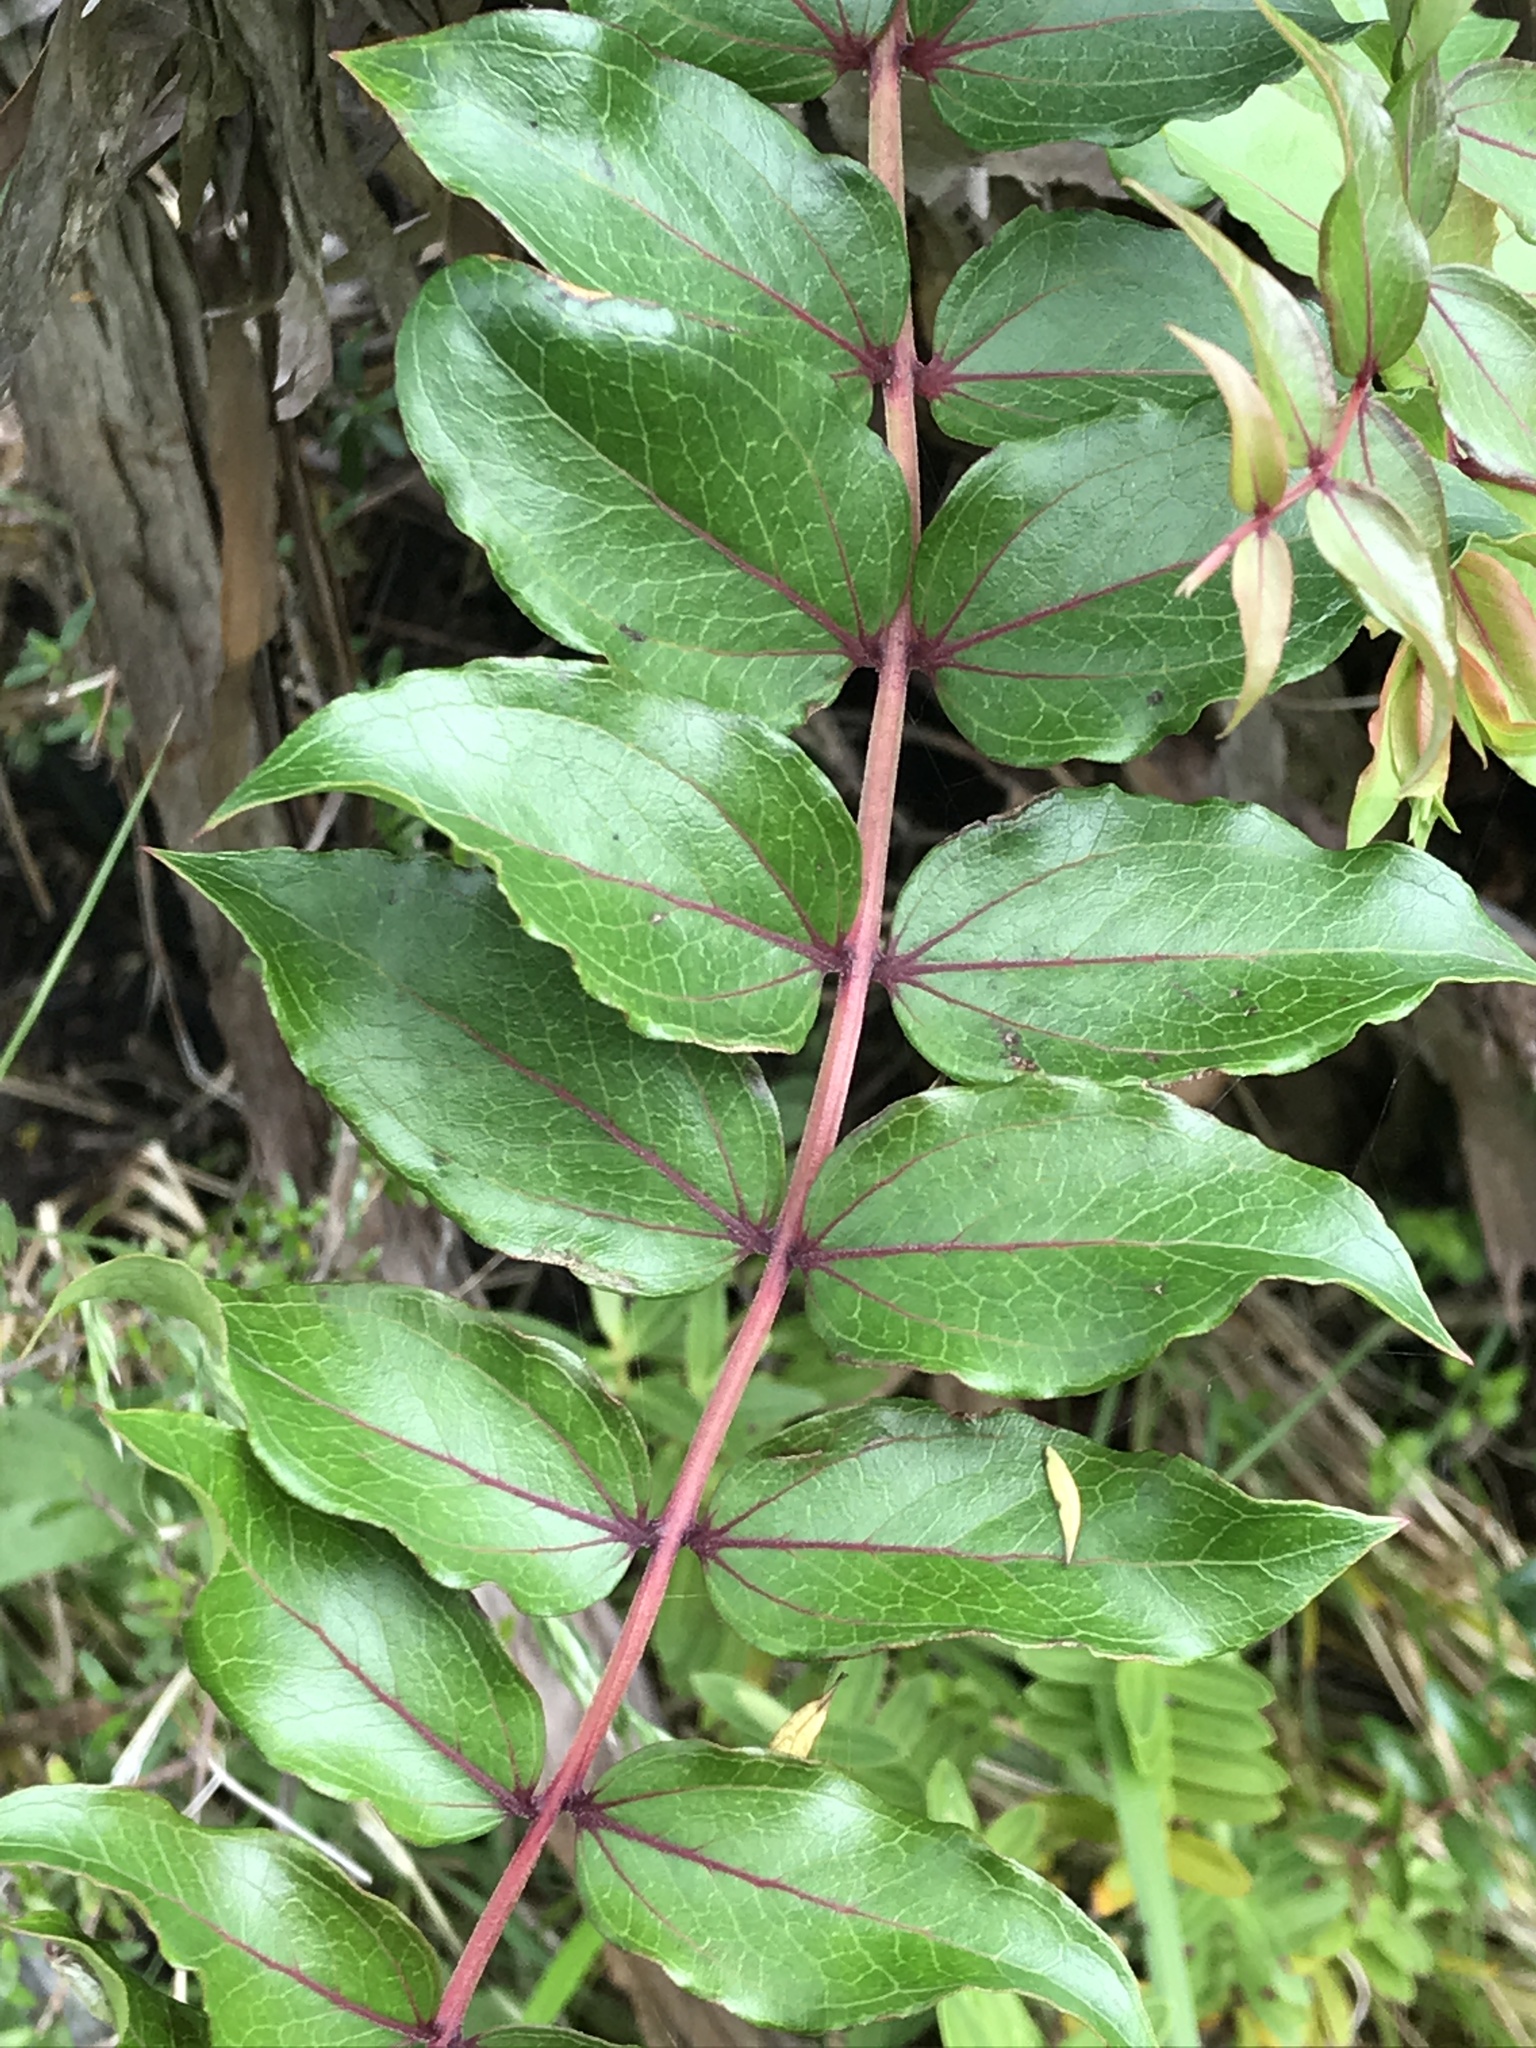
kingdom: Plantae
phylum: Tracheophyta
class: Magnoliopsida
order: Cucurbitales
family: Coriariaceae
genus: Coriaria
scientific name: Coriaria arborea
